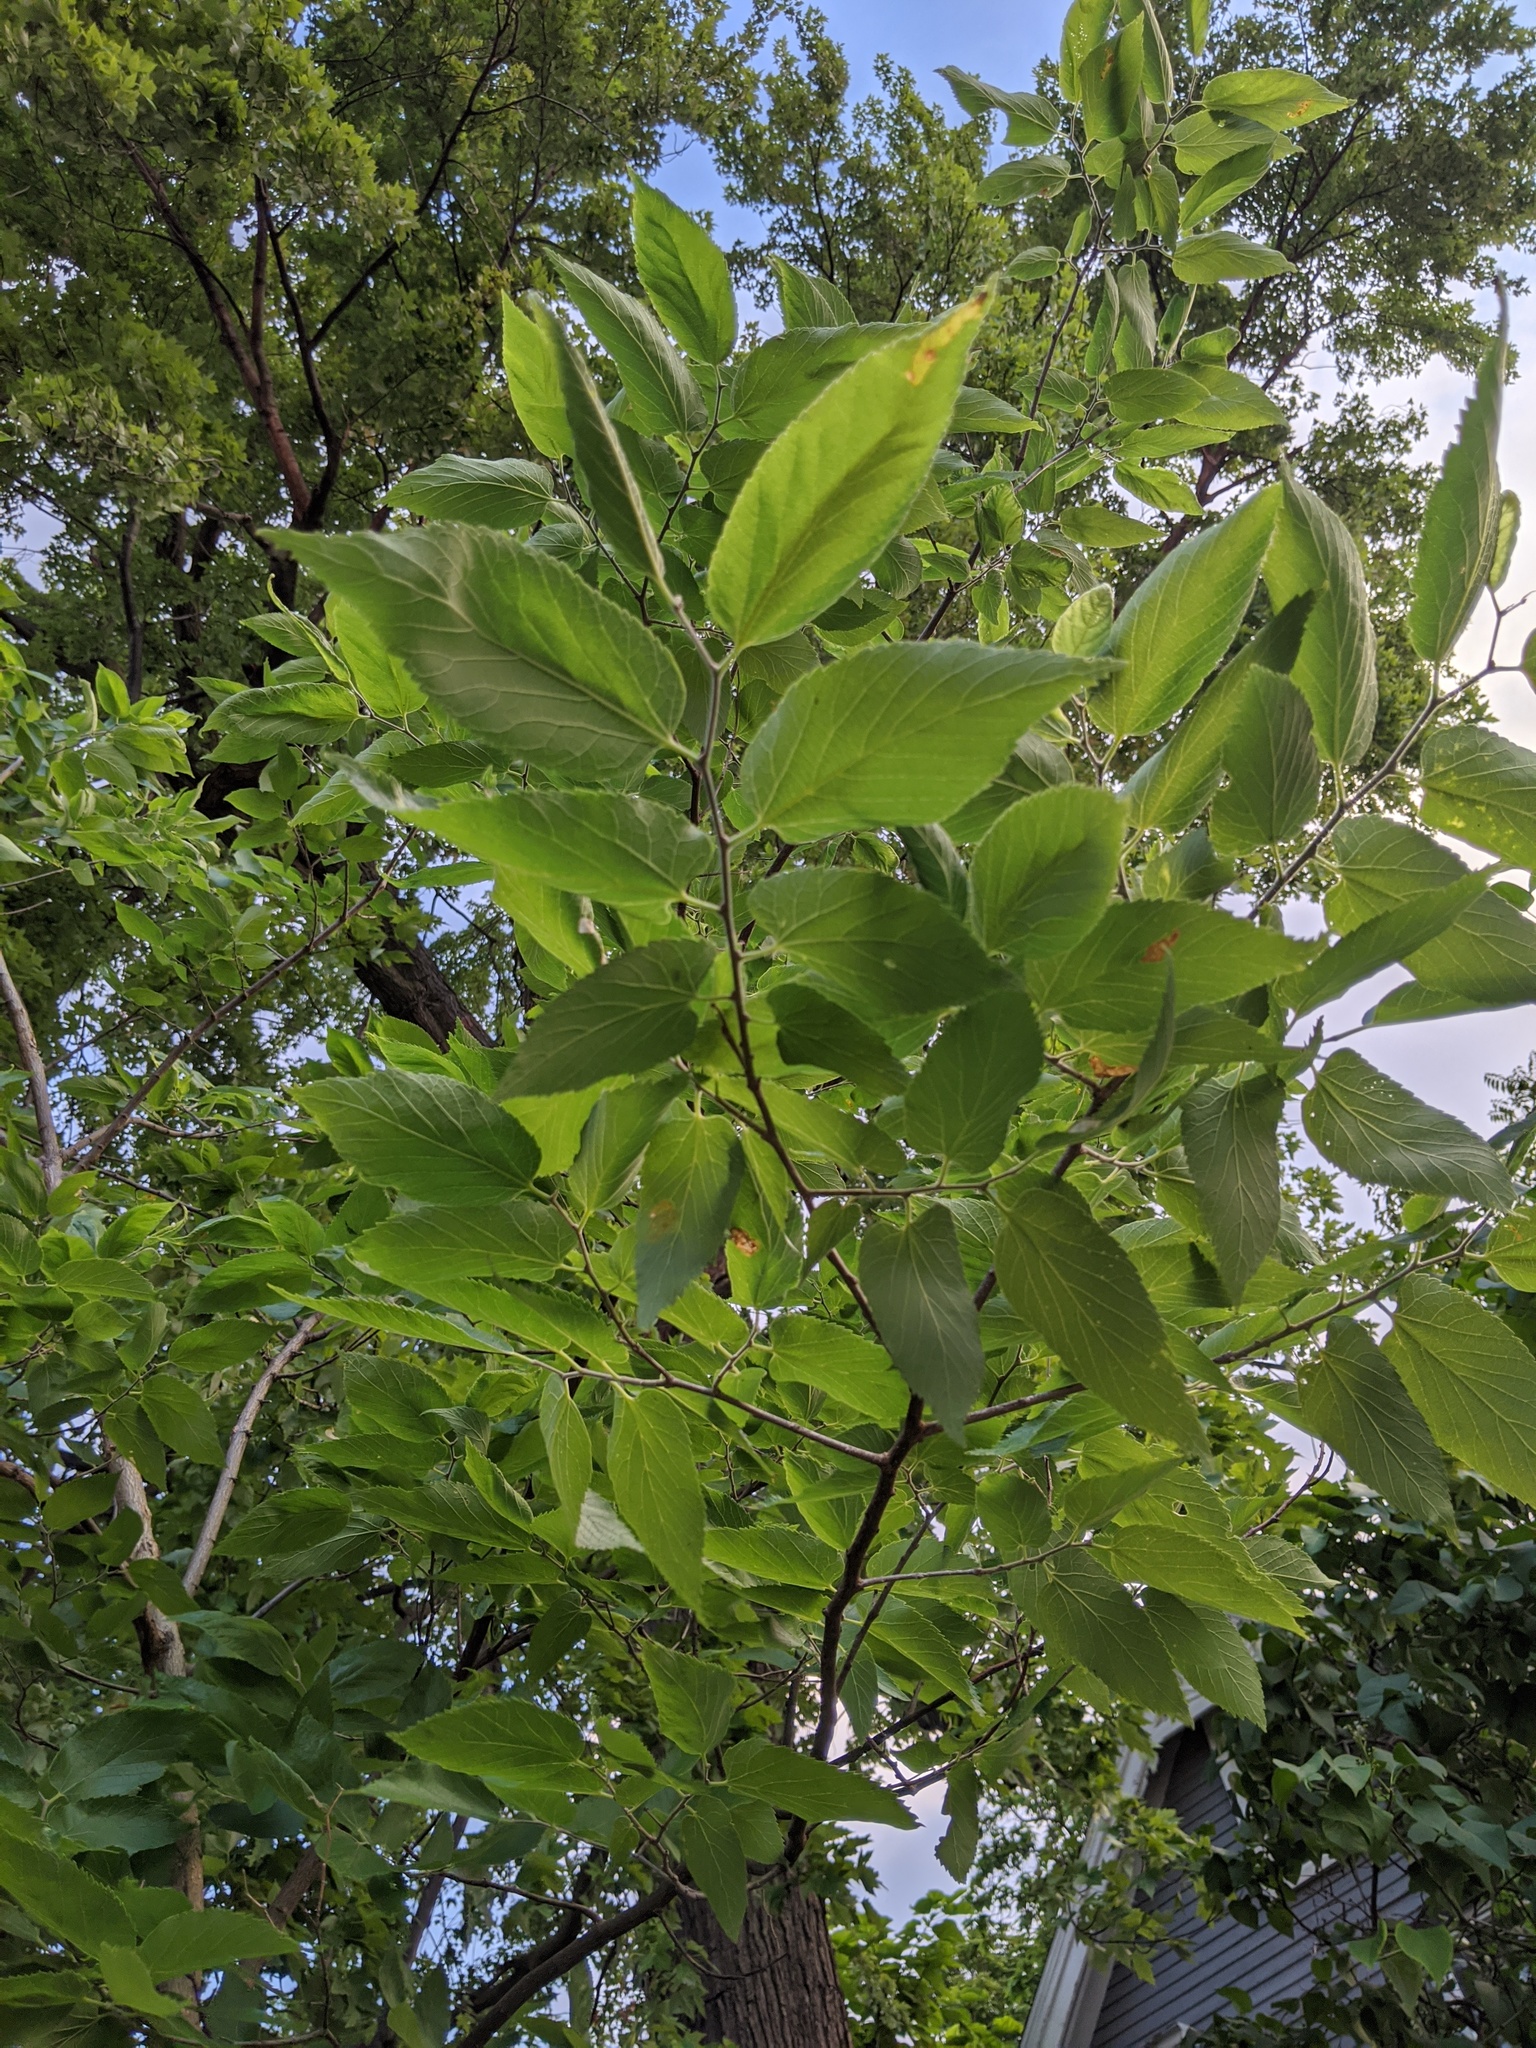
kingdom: Plantae
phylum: Tracheophyta
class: Magnoliopsida
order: Rosales
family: Cannabaceae
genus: Celtis
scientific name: Celtis occidentalis
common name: Common hackberry
